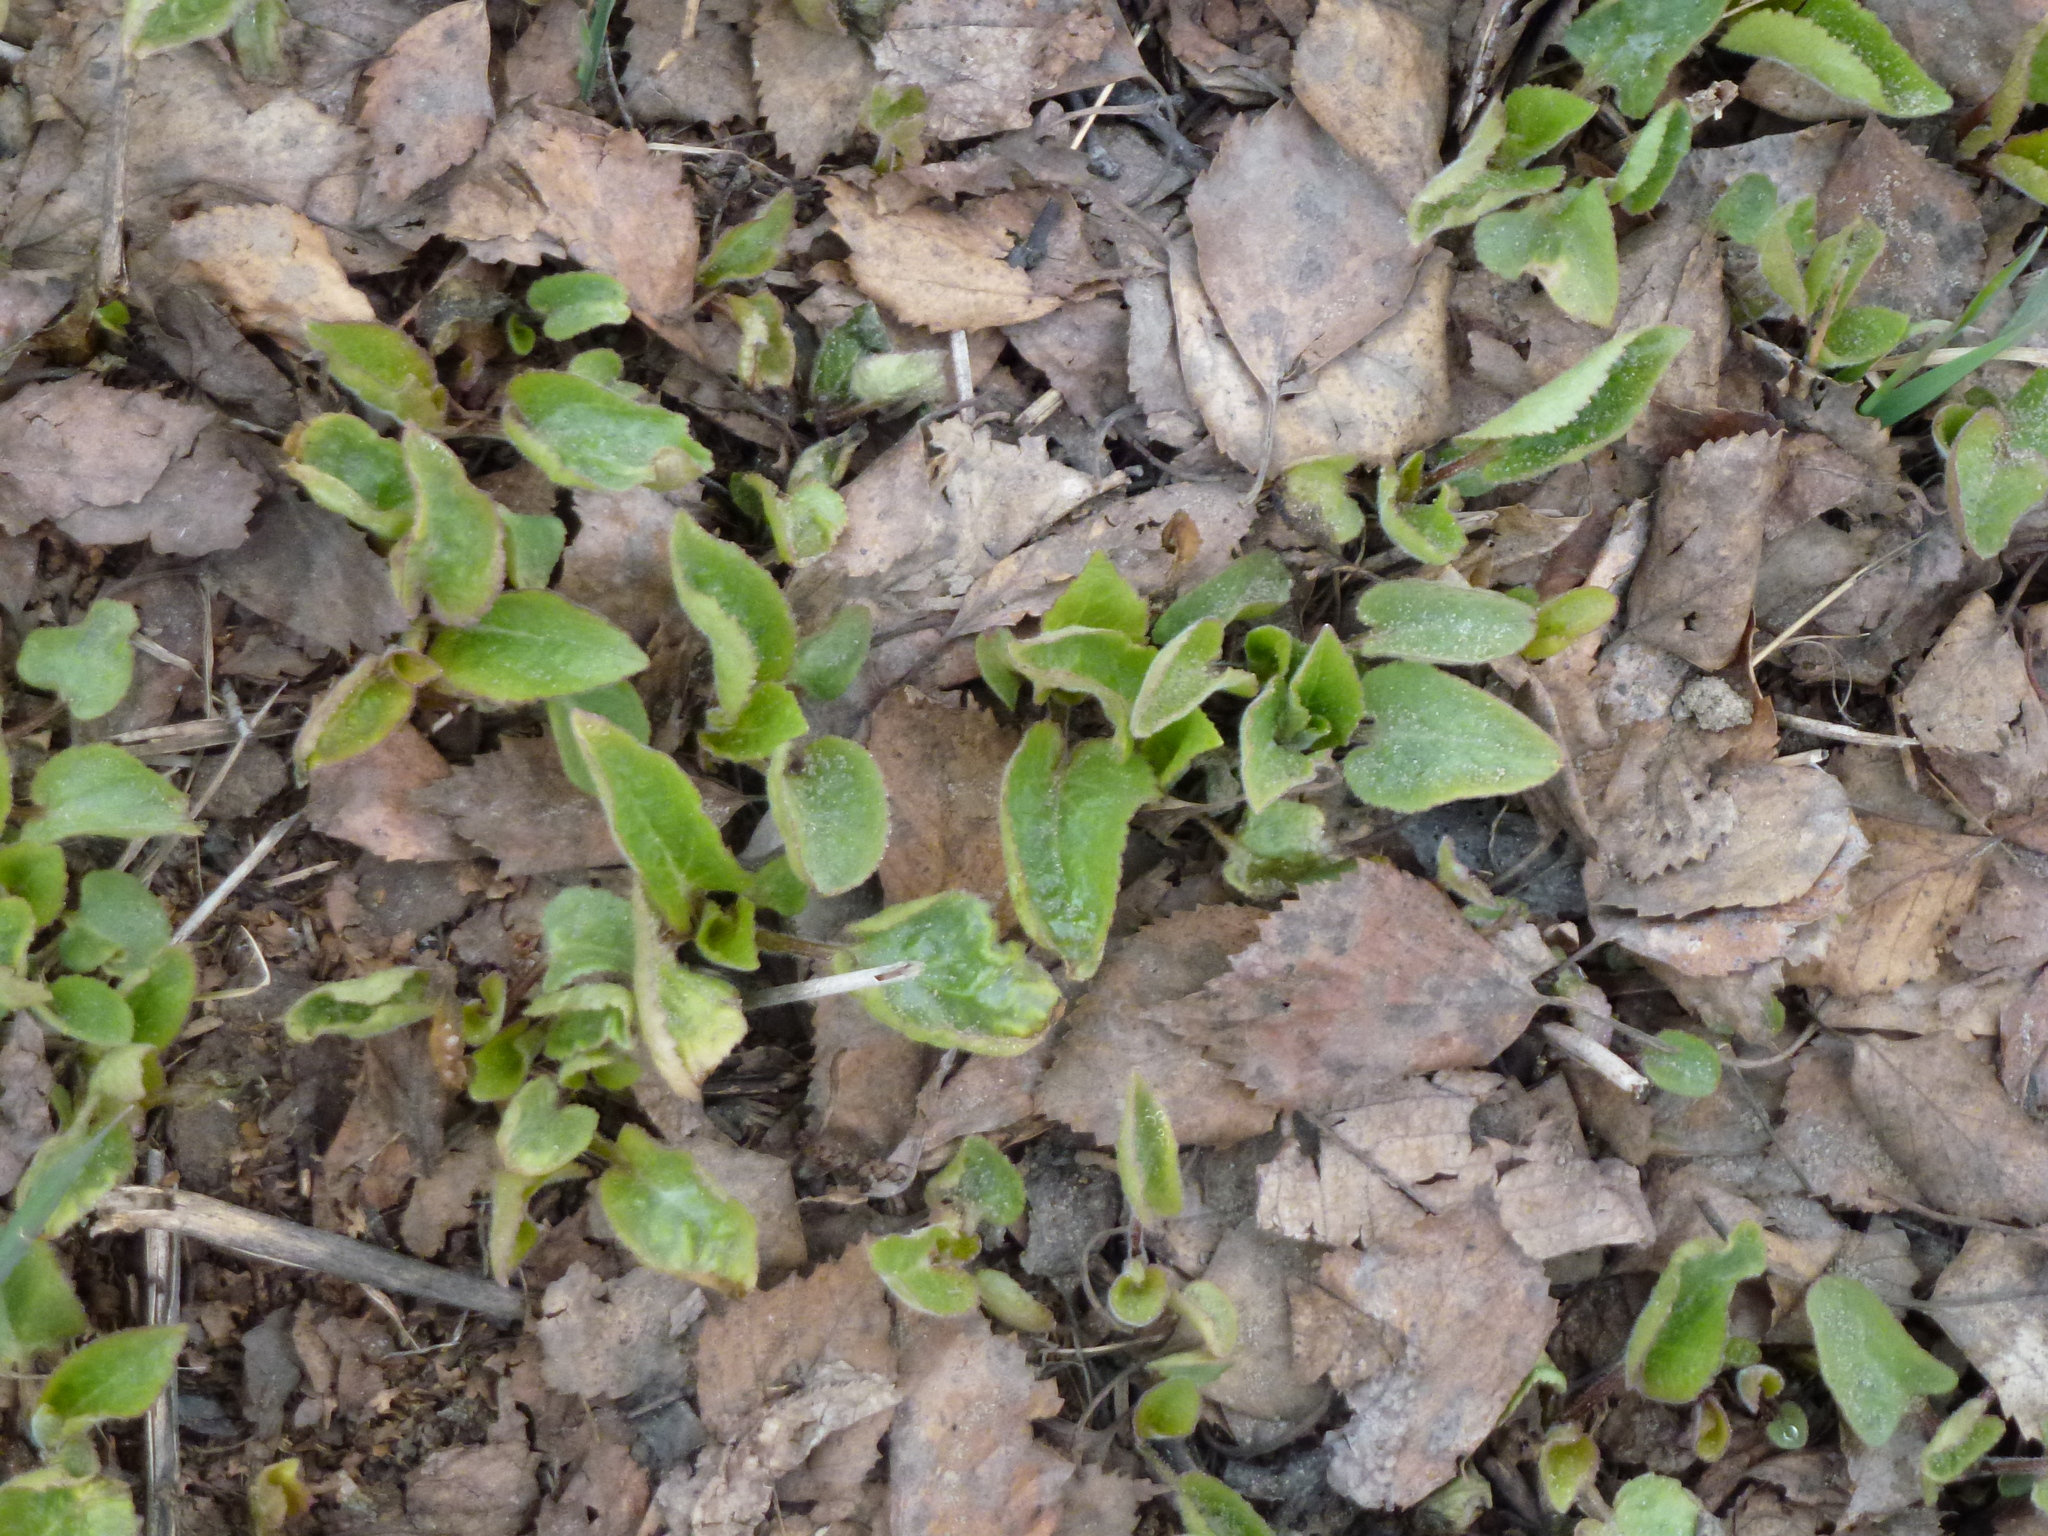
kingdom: Plantae
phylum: Tracheophyta
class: Magnoliopsida
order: Asterales
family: Campanulaceae
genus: Campanula
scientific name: Campanula rapunculoides
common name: Creeping bellflower
